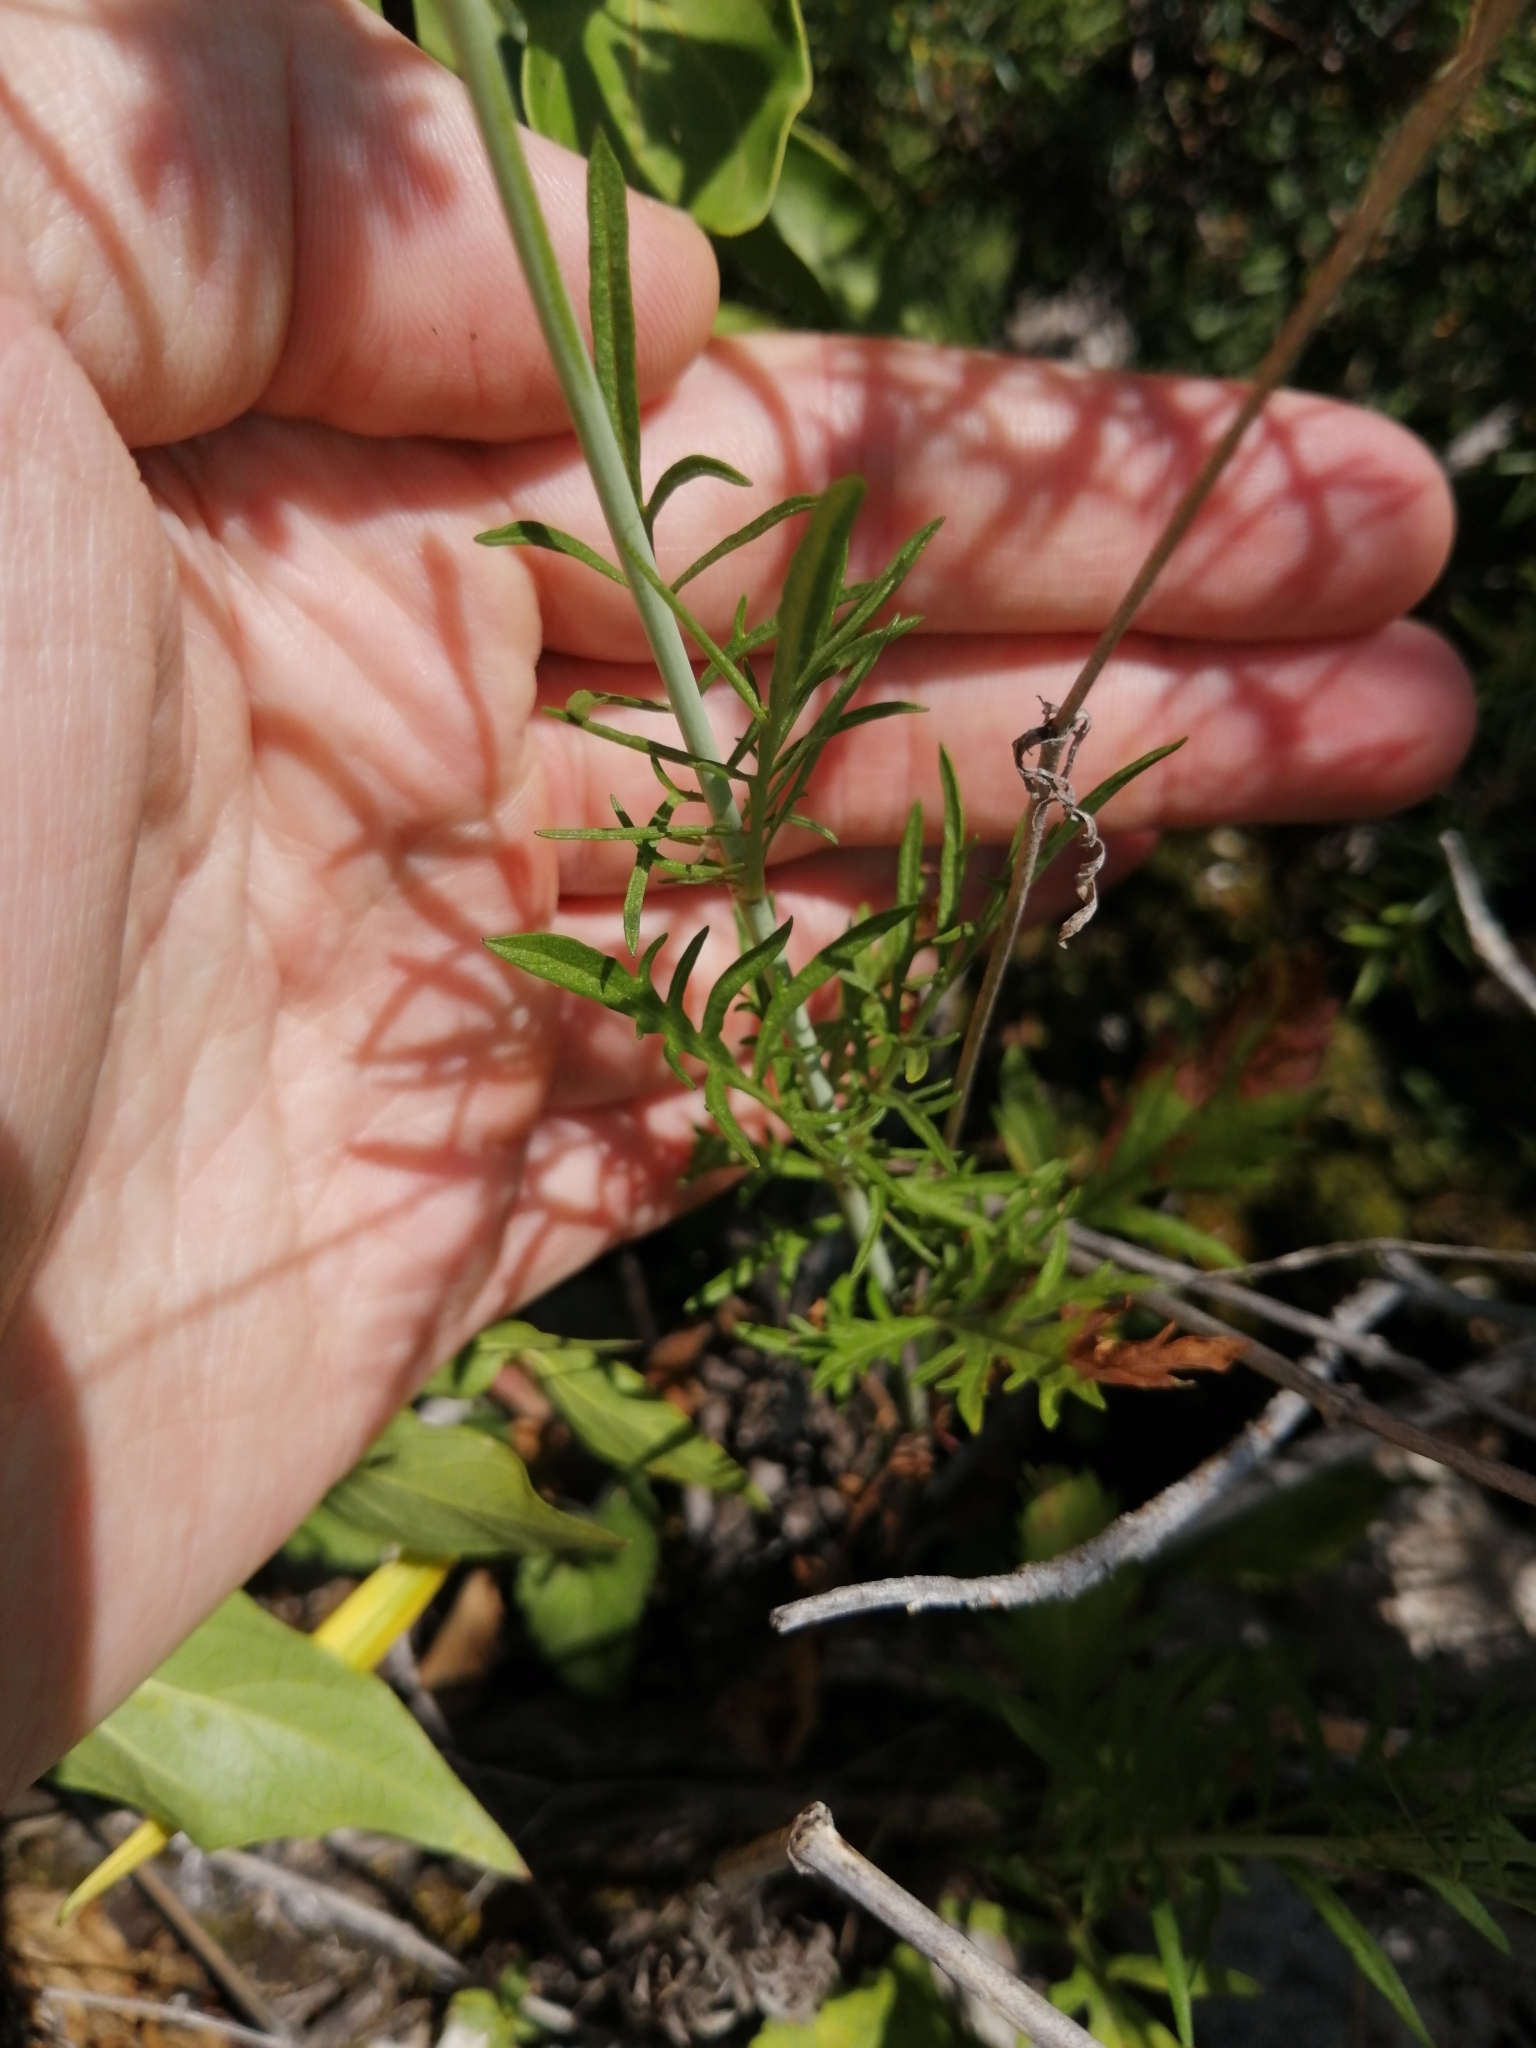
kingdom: Plantae
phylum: Tracheophyta
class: Magnoliopsida
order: Lamiales
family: Orobanchaceae
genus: Melampyrum
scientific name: Melampyrum arvense
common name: Field cow-wheat
